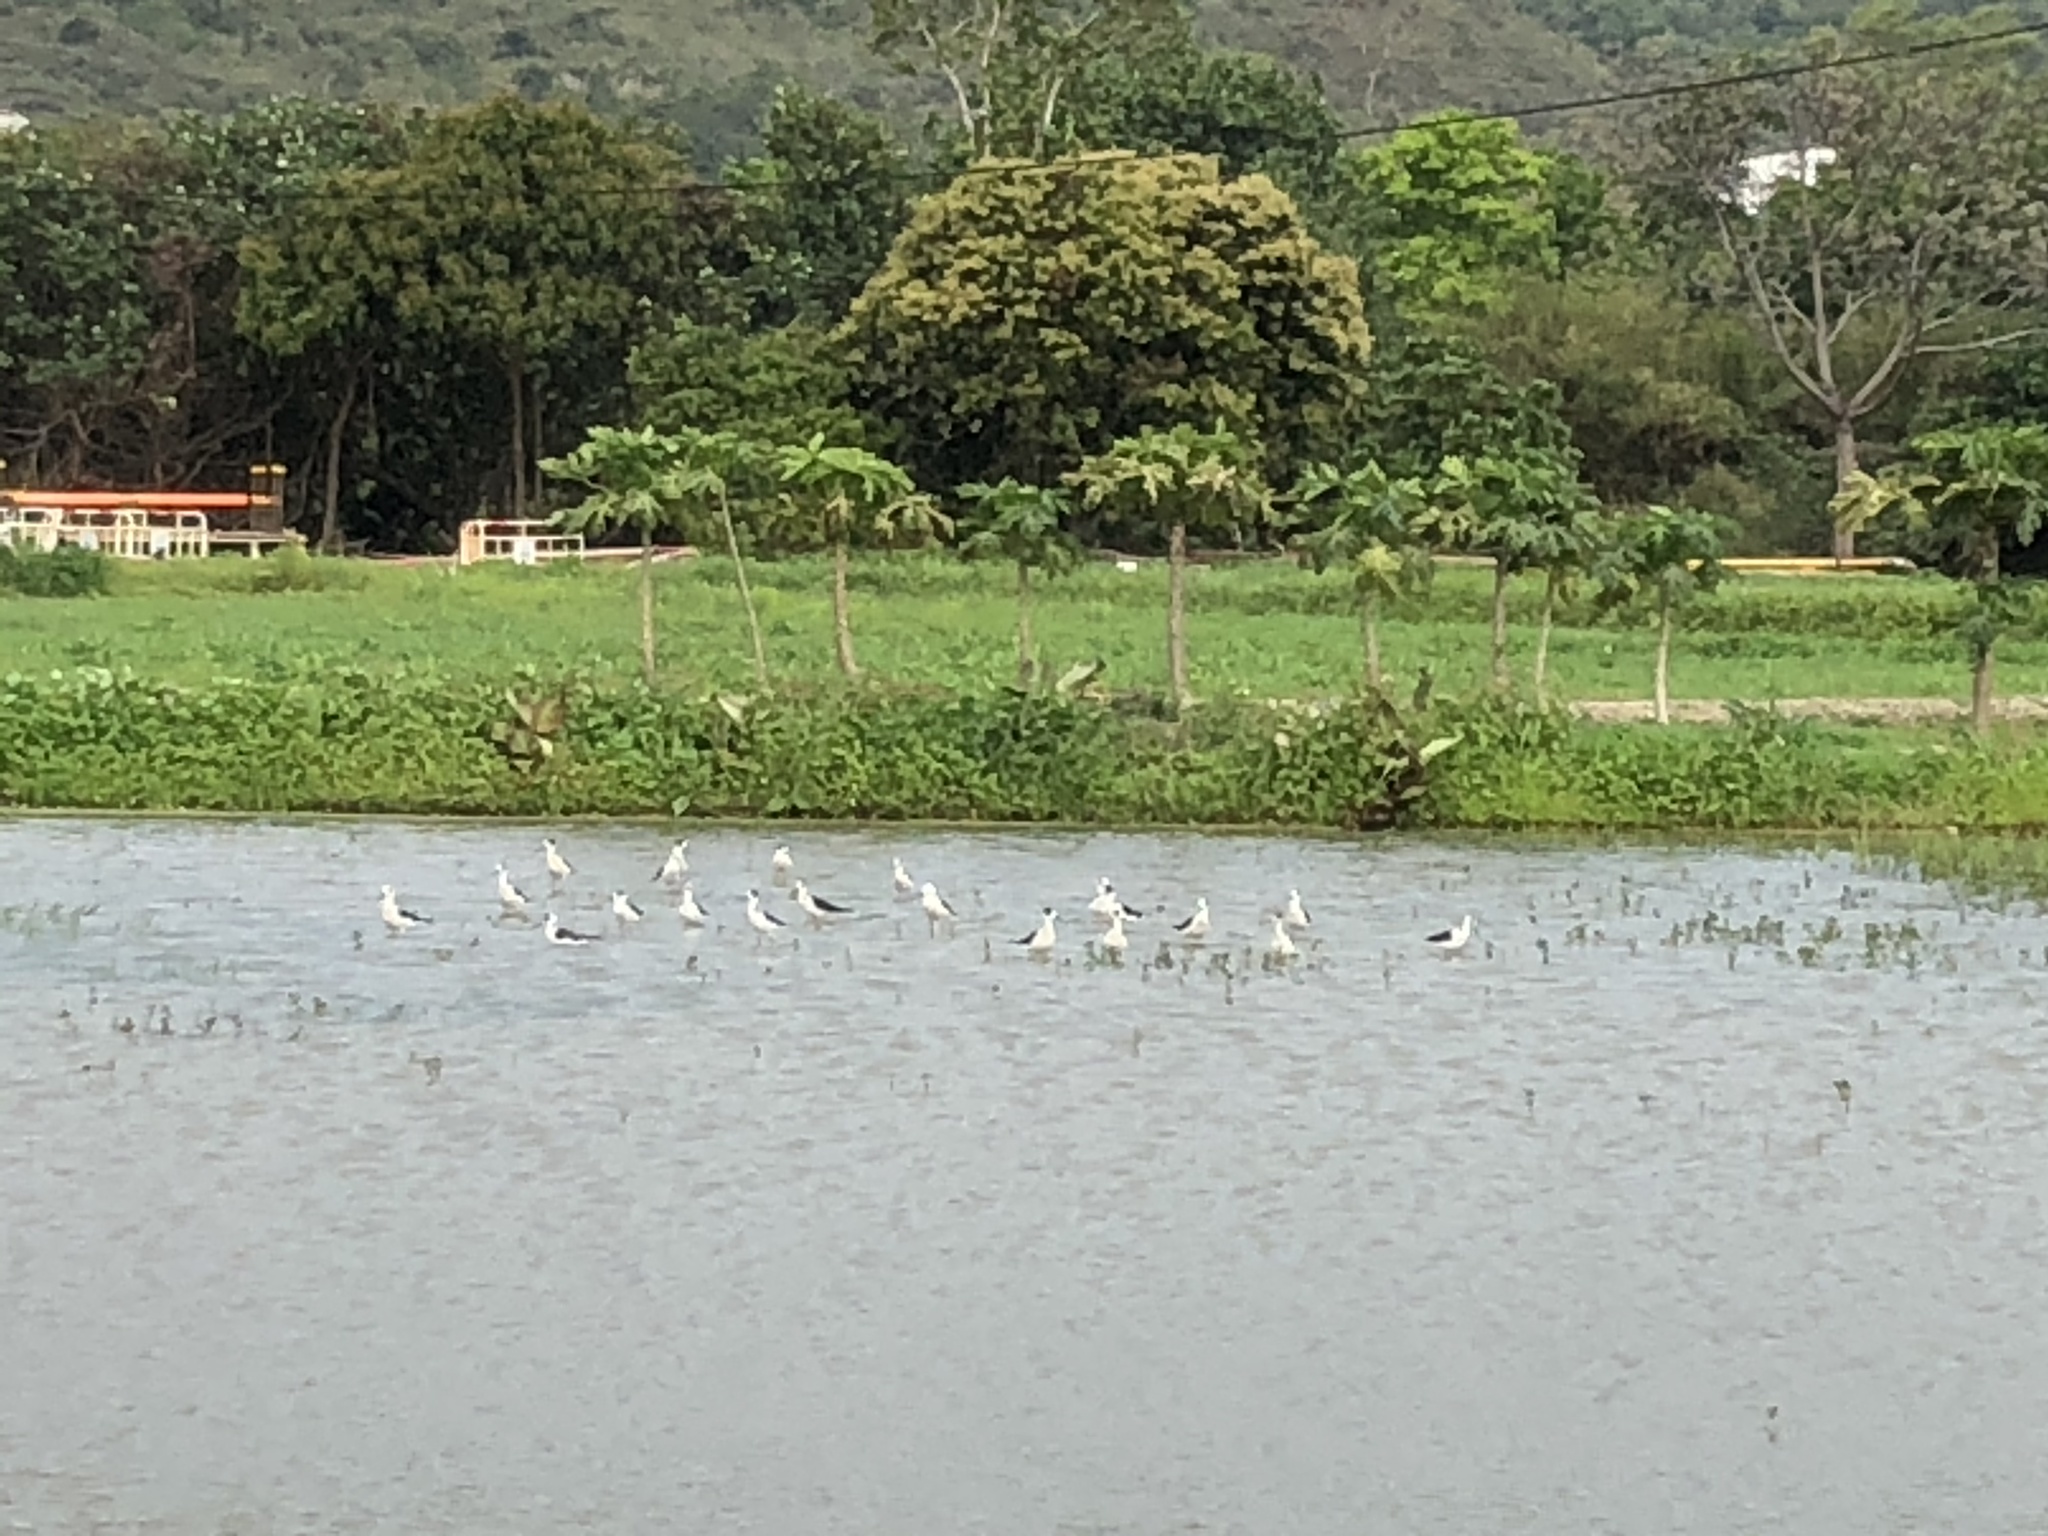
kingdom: Animalia
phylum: Chordata
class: Aves
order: Charadriiformes
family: Recurvirostridae
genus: Himantopus
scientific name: Himantopus himantopus
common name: Black-winged stilt
